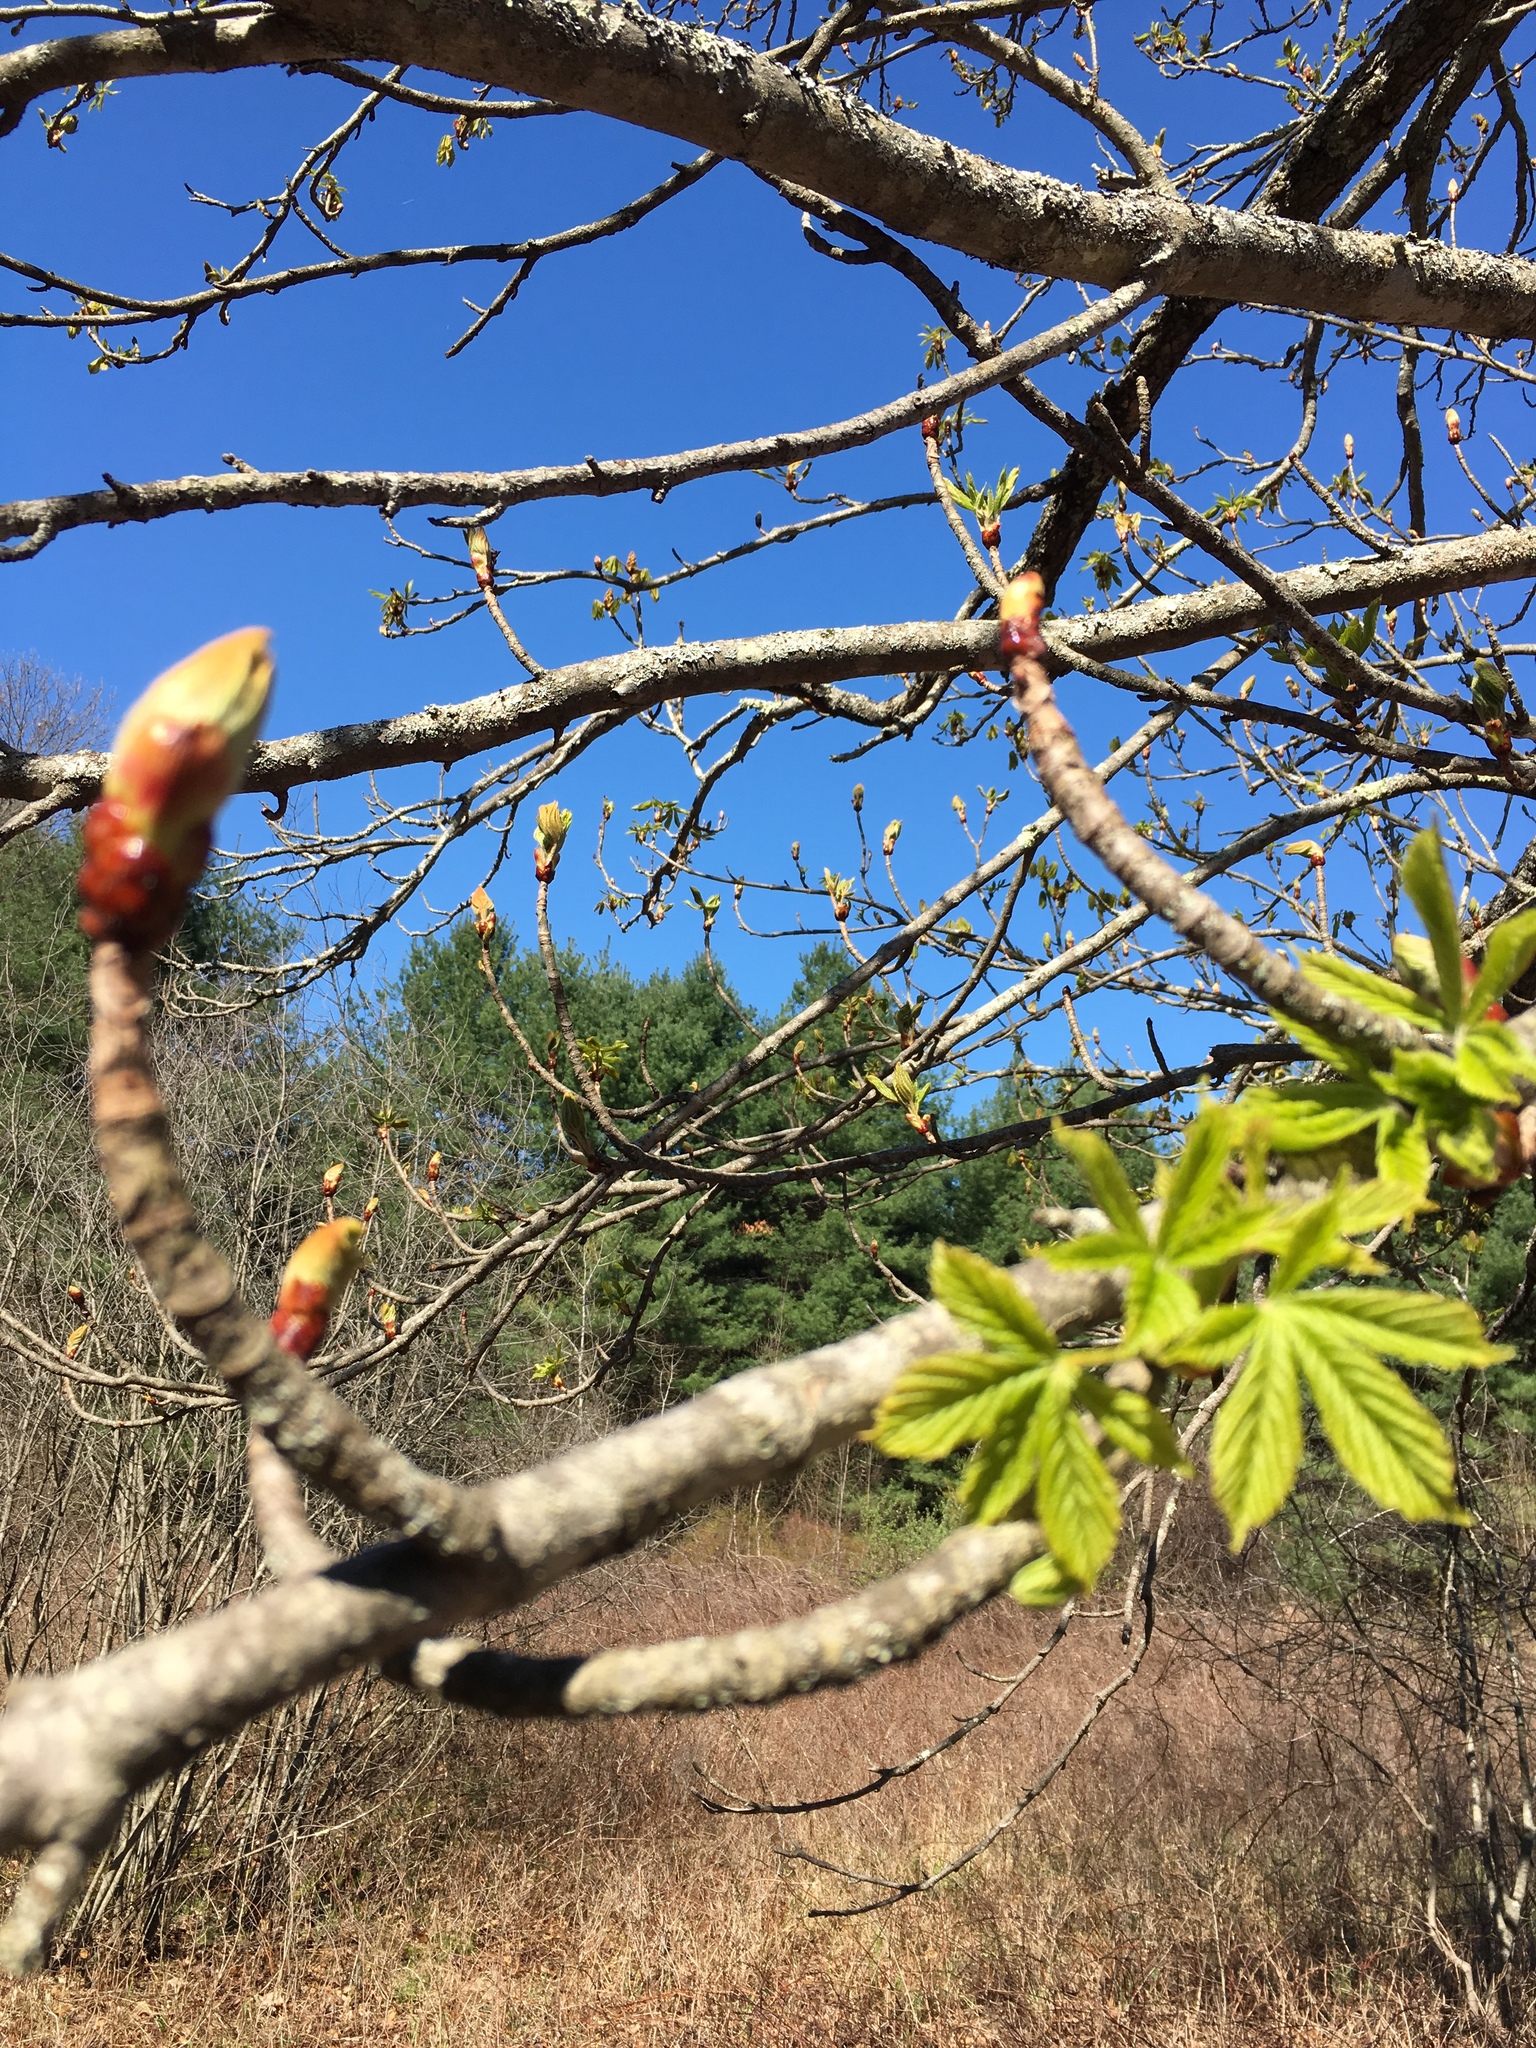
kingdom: Plantae
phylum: Tracheophyta
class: Magnoliopsida
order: Sapindales
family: Sapindaceae
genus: Aesculus
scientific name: Aesculus hippocastanum
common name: Horse-chestnut
